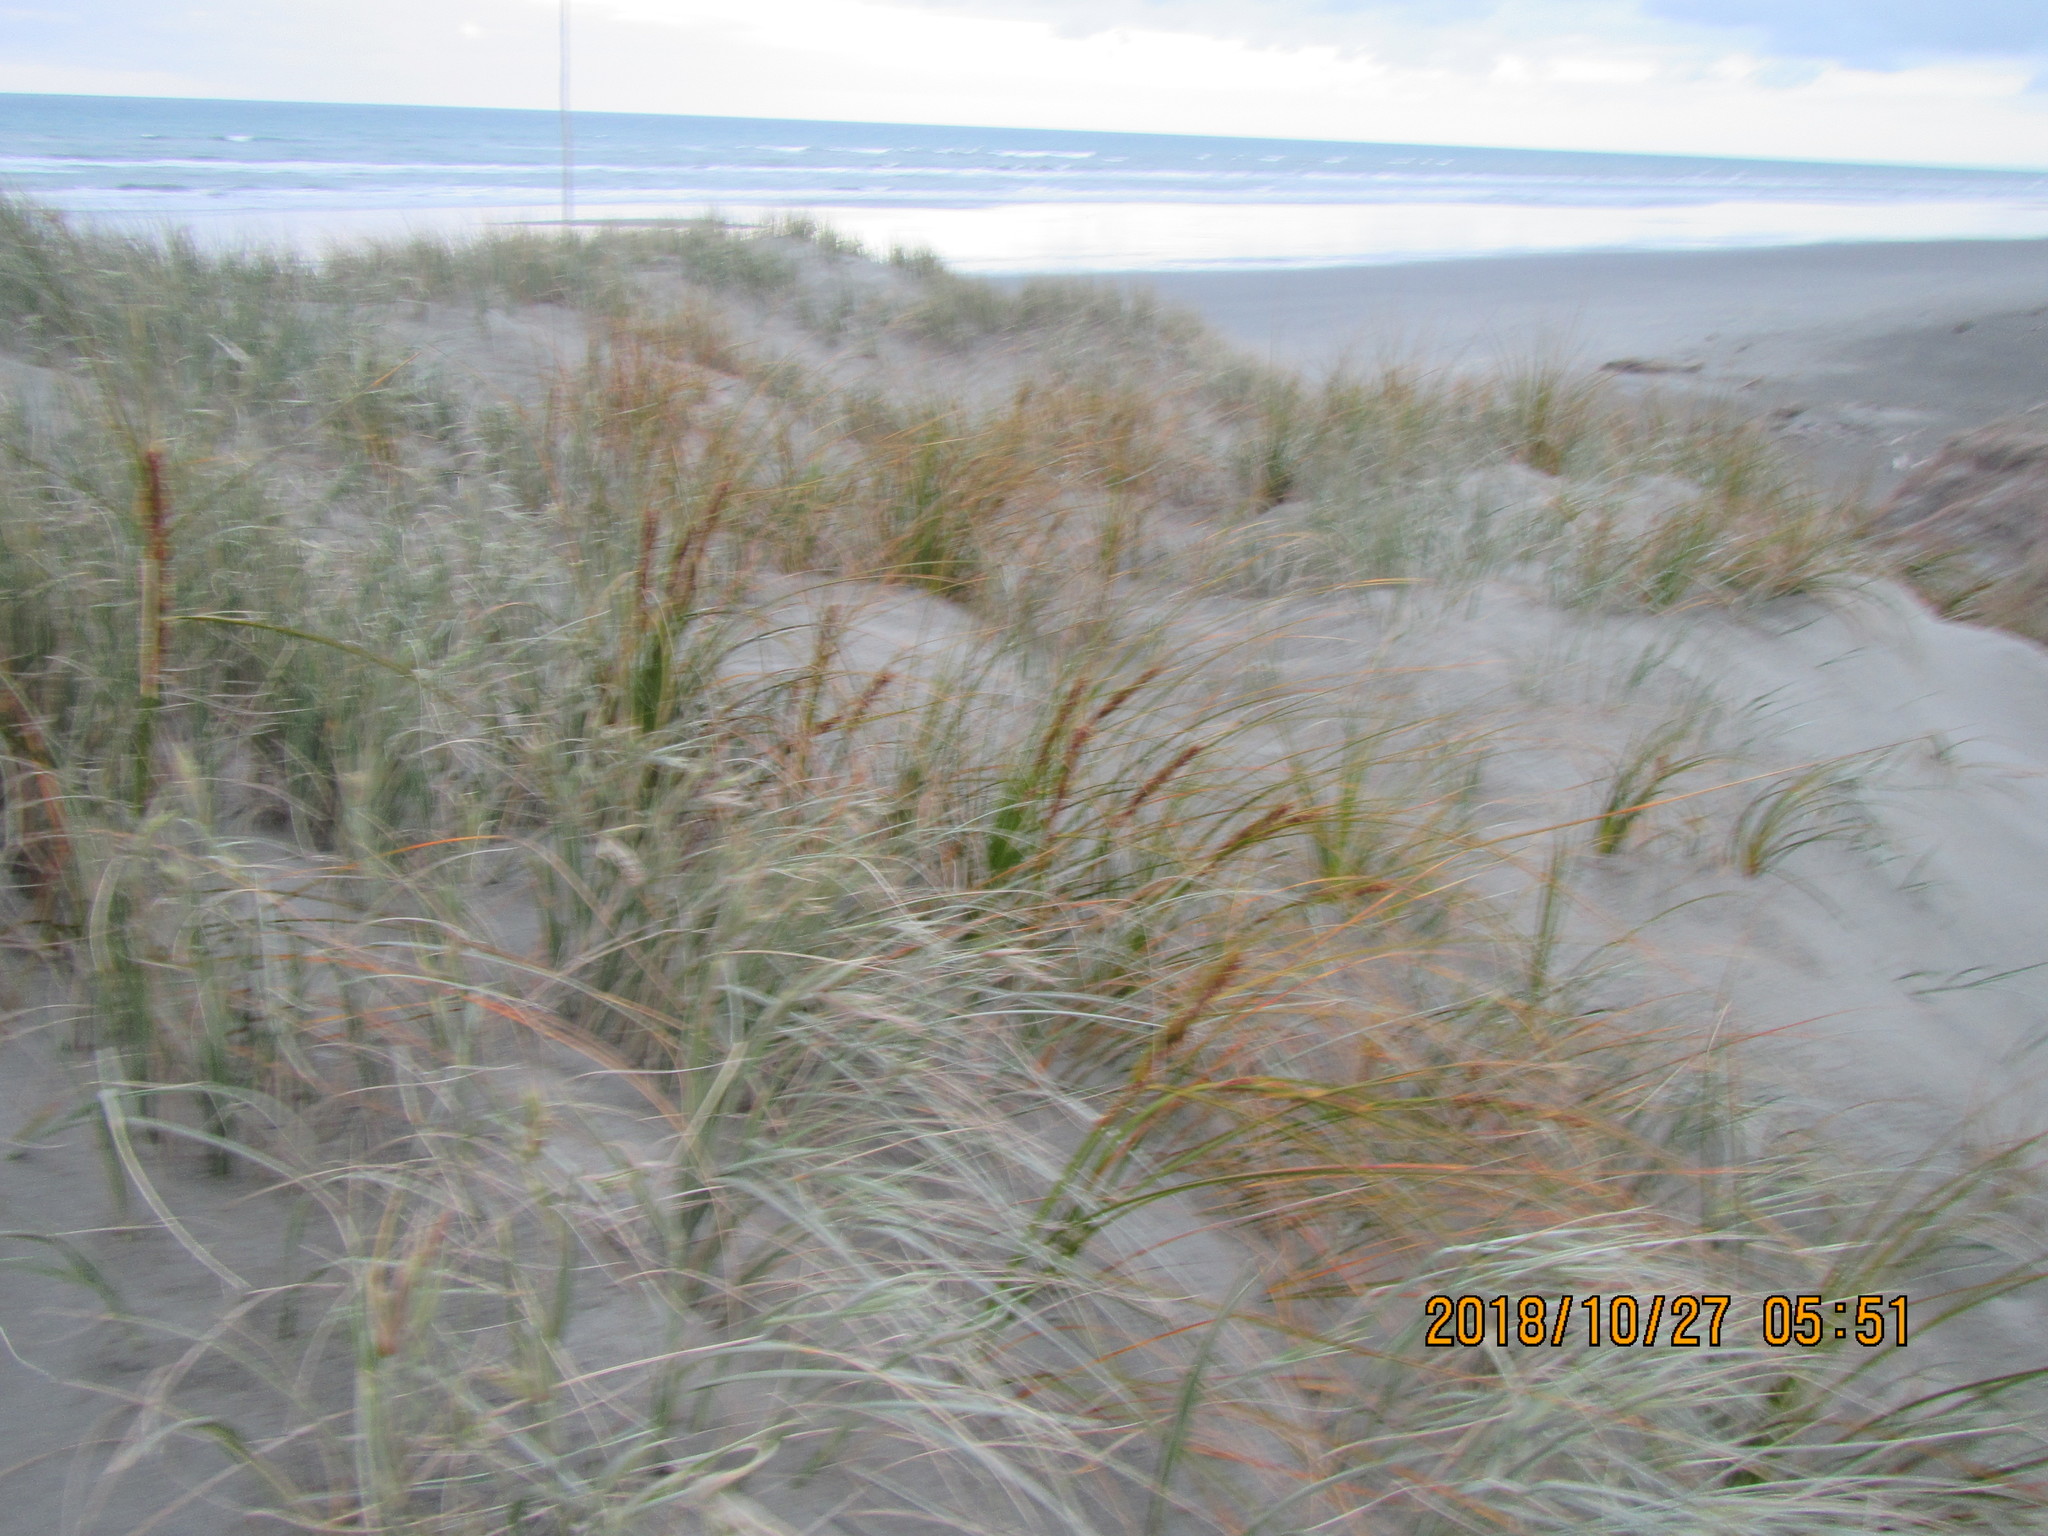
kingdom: Plantae
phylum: Tracheophyta
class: Liliopsida
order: Poales
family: Cyperaceae
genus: Ficinia
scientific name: Ficinia spiralis
